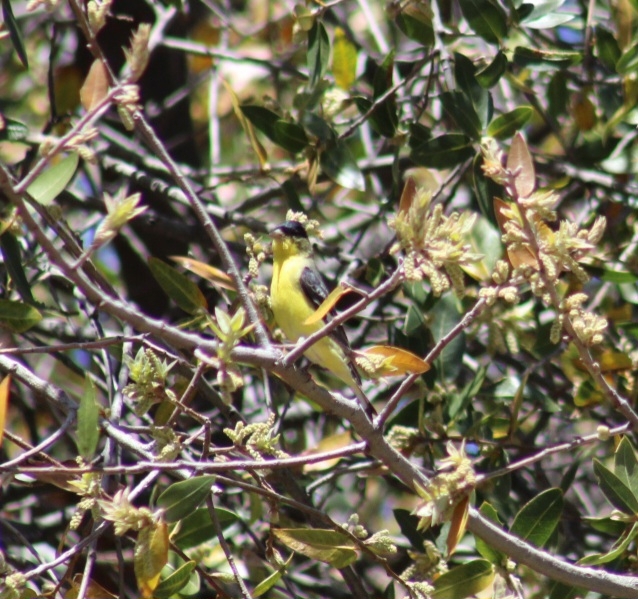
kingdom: Animalia
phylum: Chordata
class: Aves
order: Passeriformes
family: Fringillidae
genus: Spinus
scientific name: Spinus psaltria
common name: Lesser goldfinch
